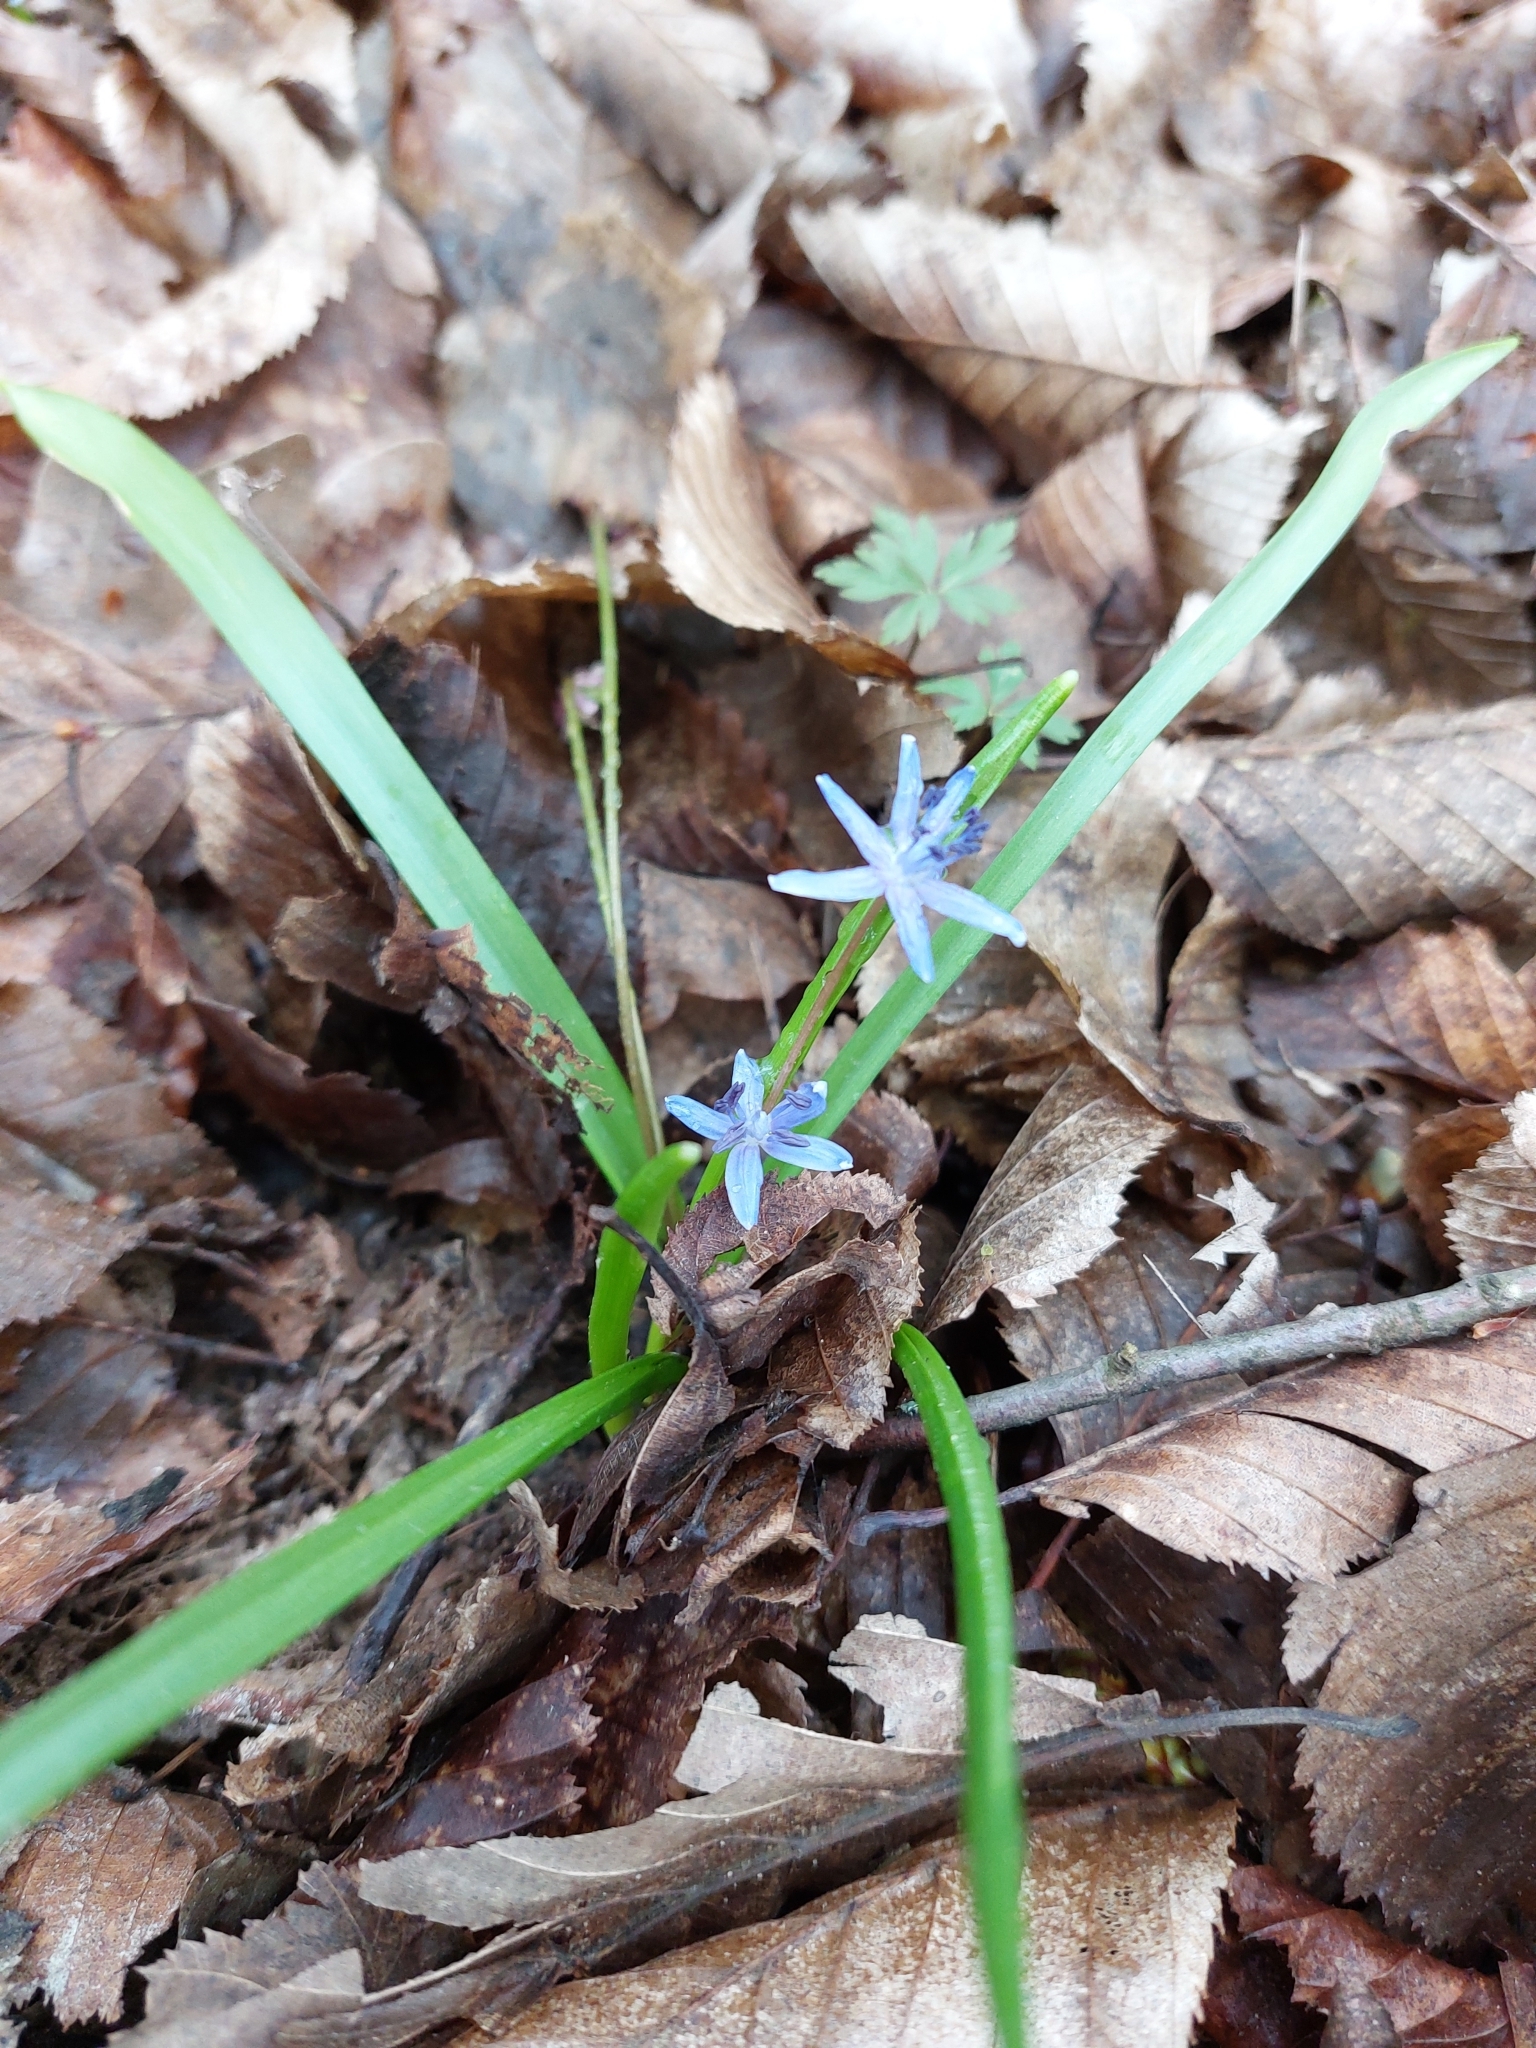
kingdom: Plantae
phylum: Tracheophyta
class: Liliopsida
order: Asparagales
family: Asparagaceae
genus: Scilla
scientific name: Scilla bifolia
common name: Alpine squill
